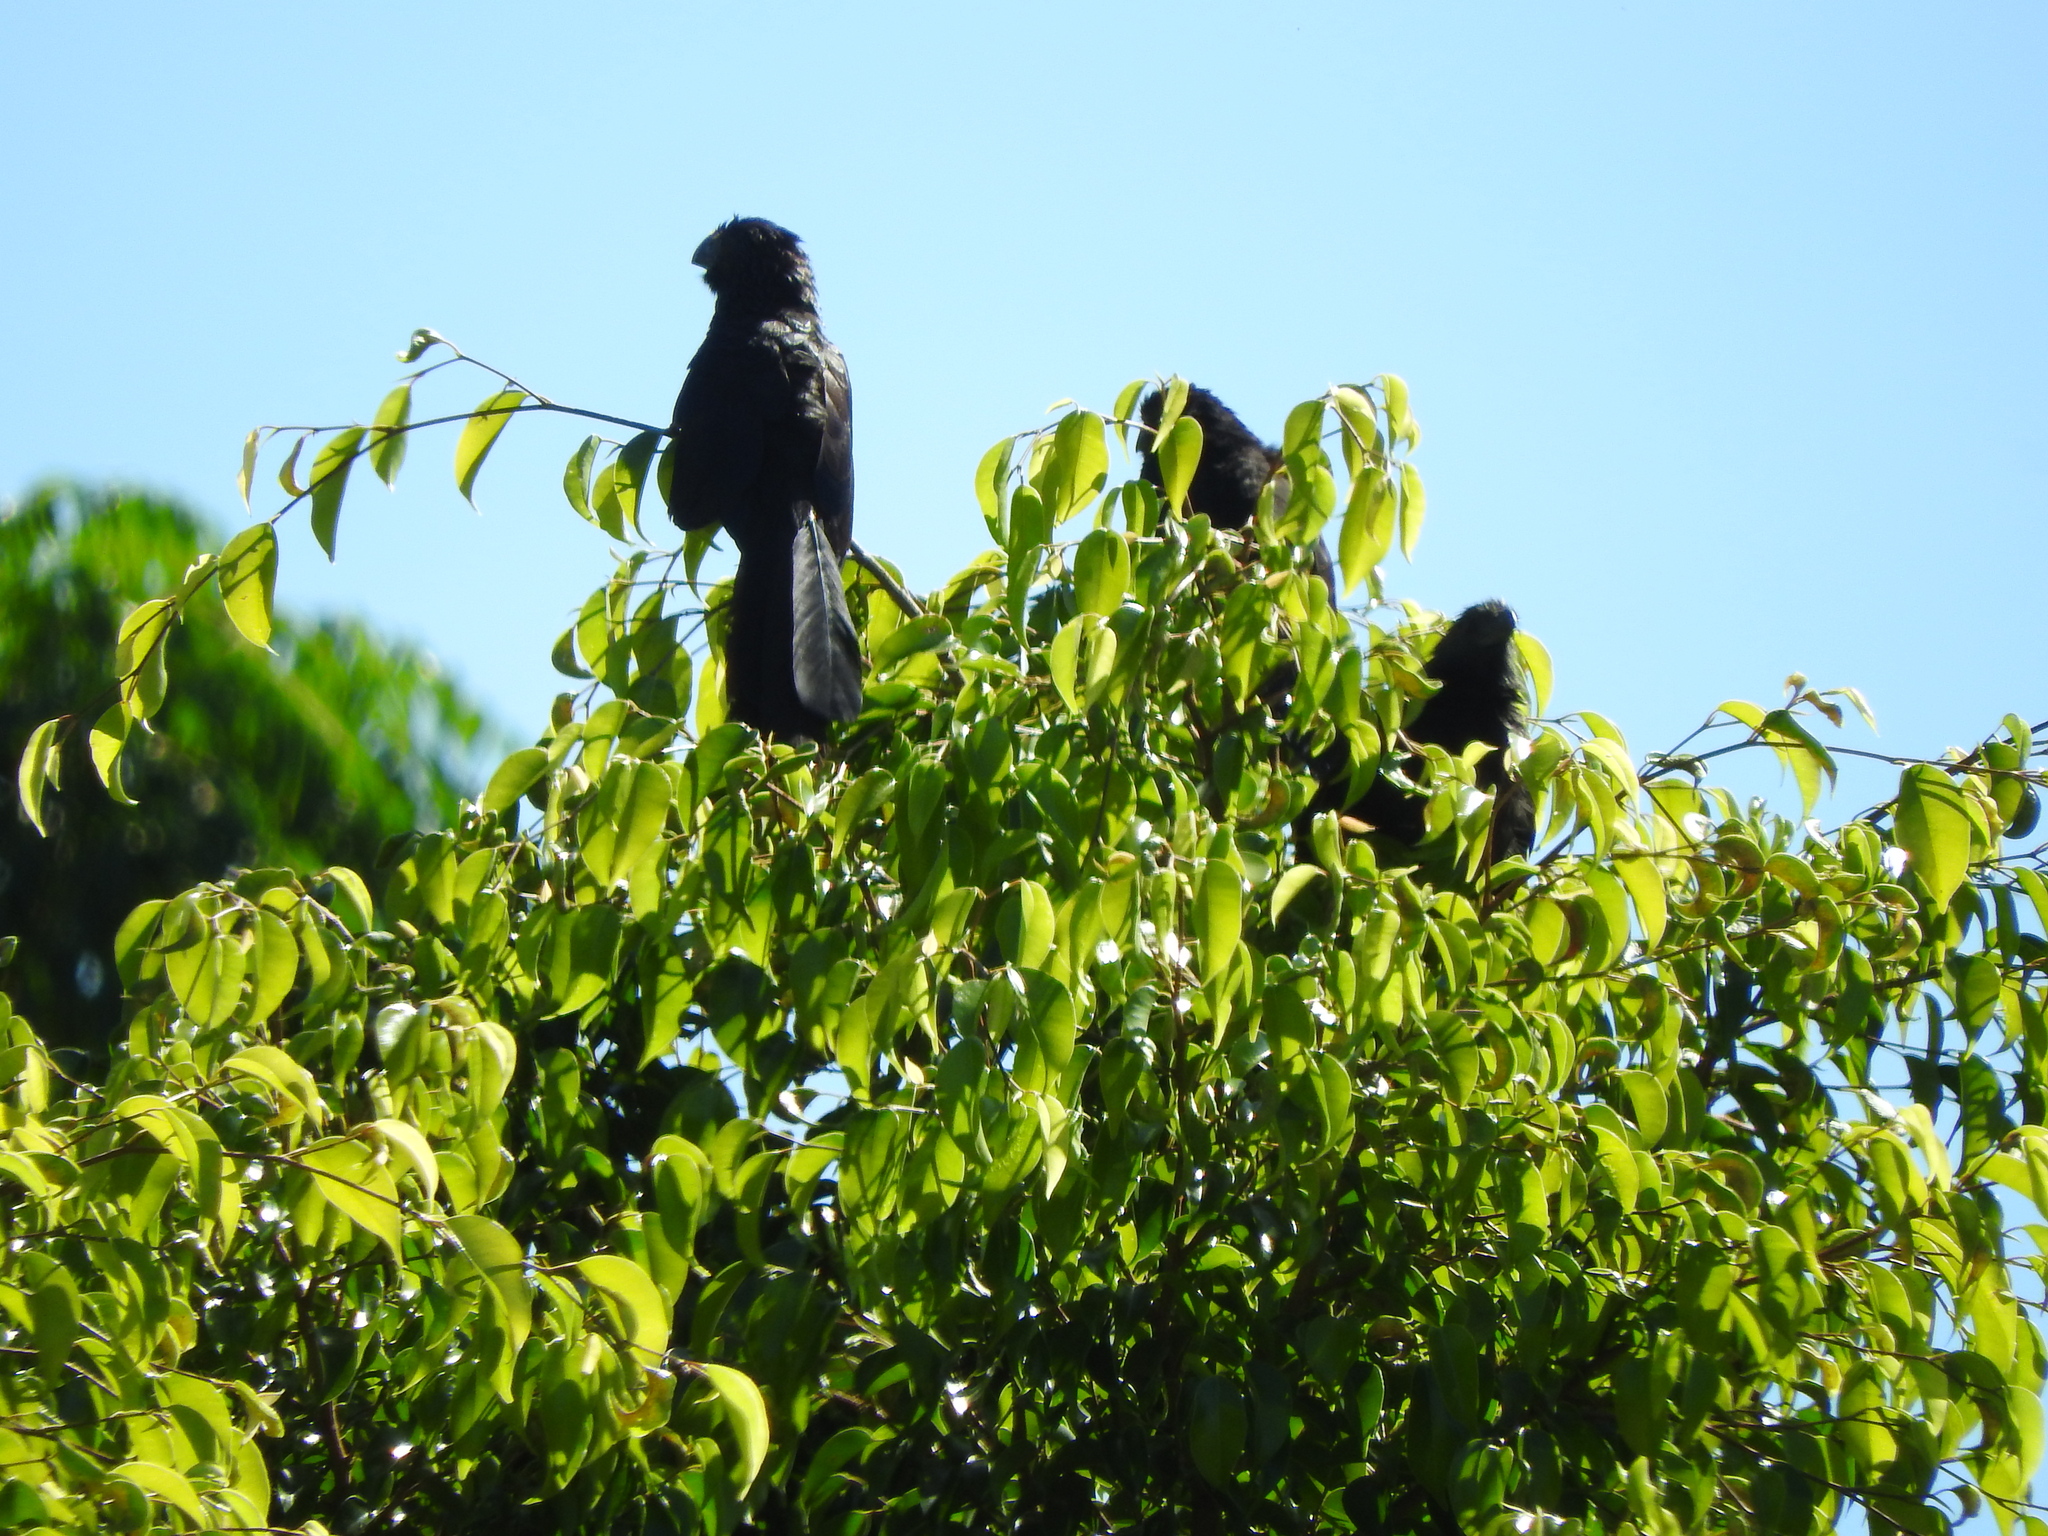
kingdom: Animalia
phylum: Chordata
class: Aves
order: Cuculiformes
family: Cuculidae
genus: Crotophaga
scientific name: Crotophaga sulcirostris
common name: Groove-billed ani
